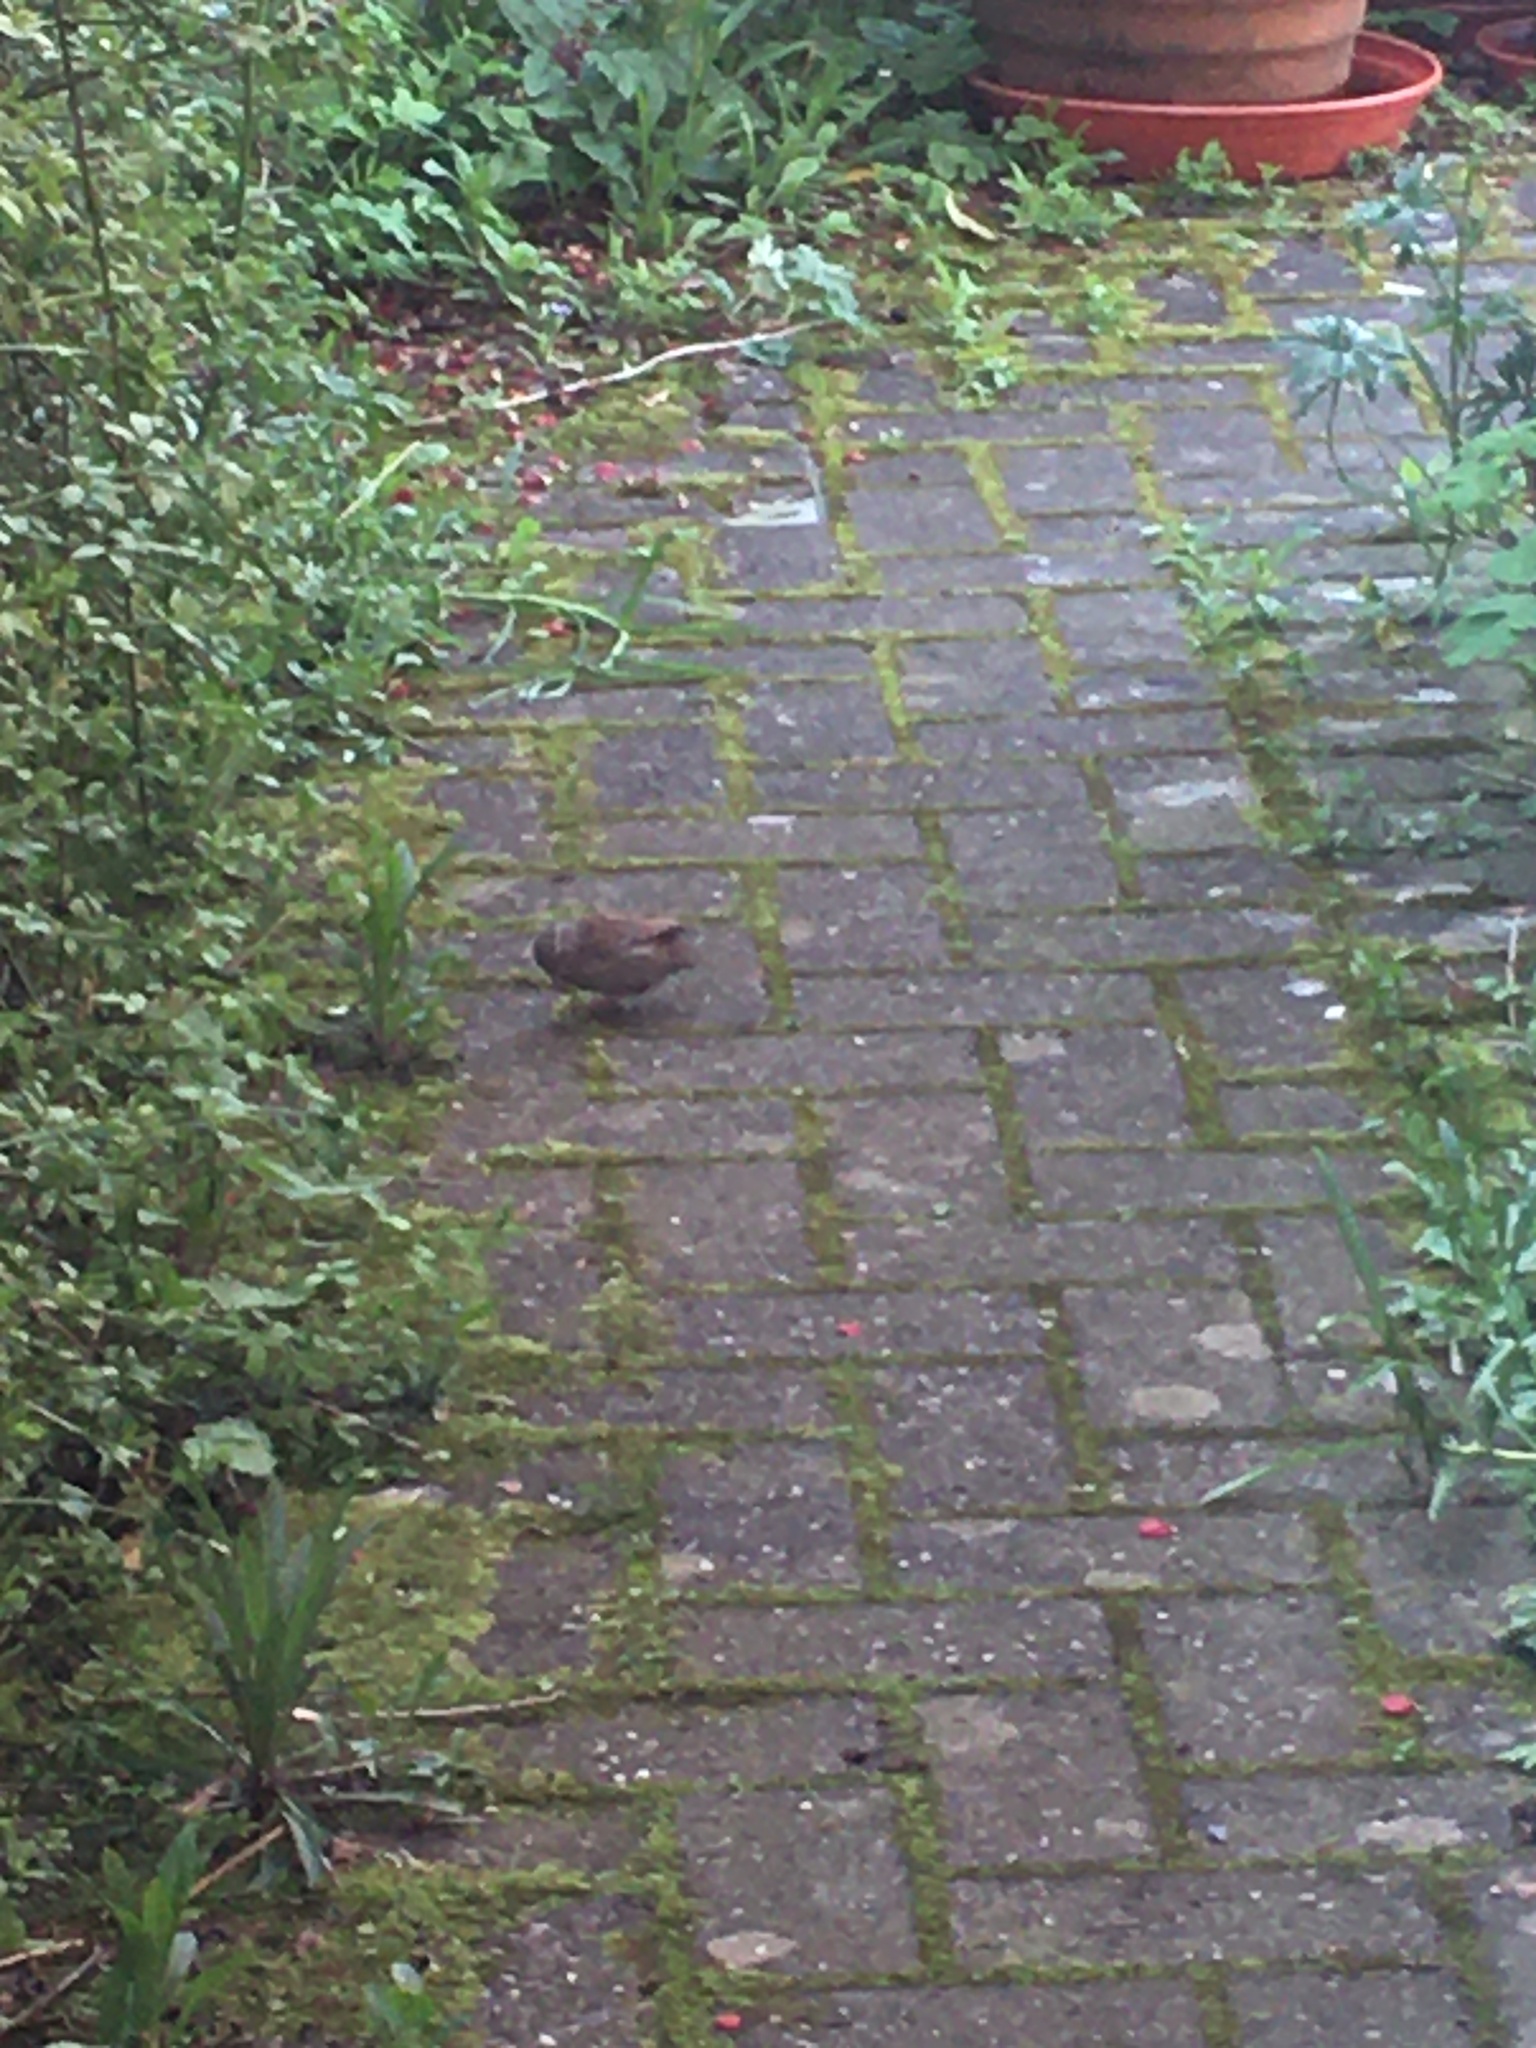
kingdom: Animalia
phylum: Chordata
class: Aves
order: Passeriformes
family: Prunellidae
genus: Prunella
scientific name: Prunella modularis
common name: Dunnock
